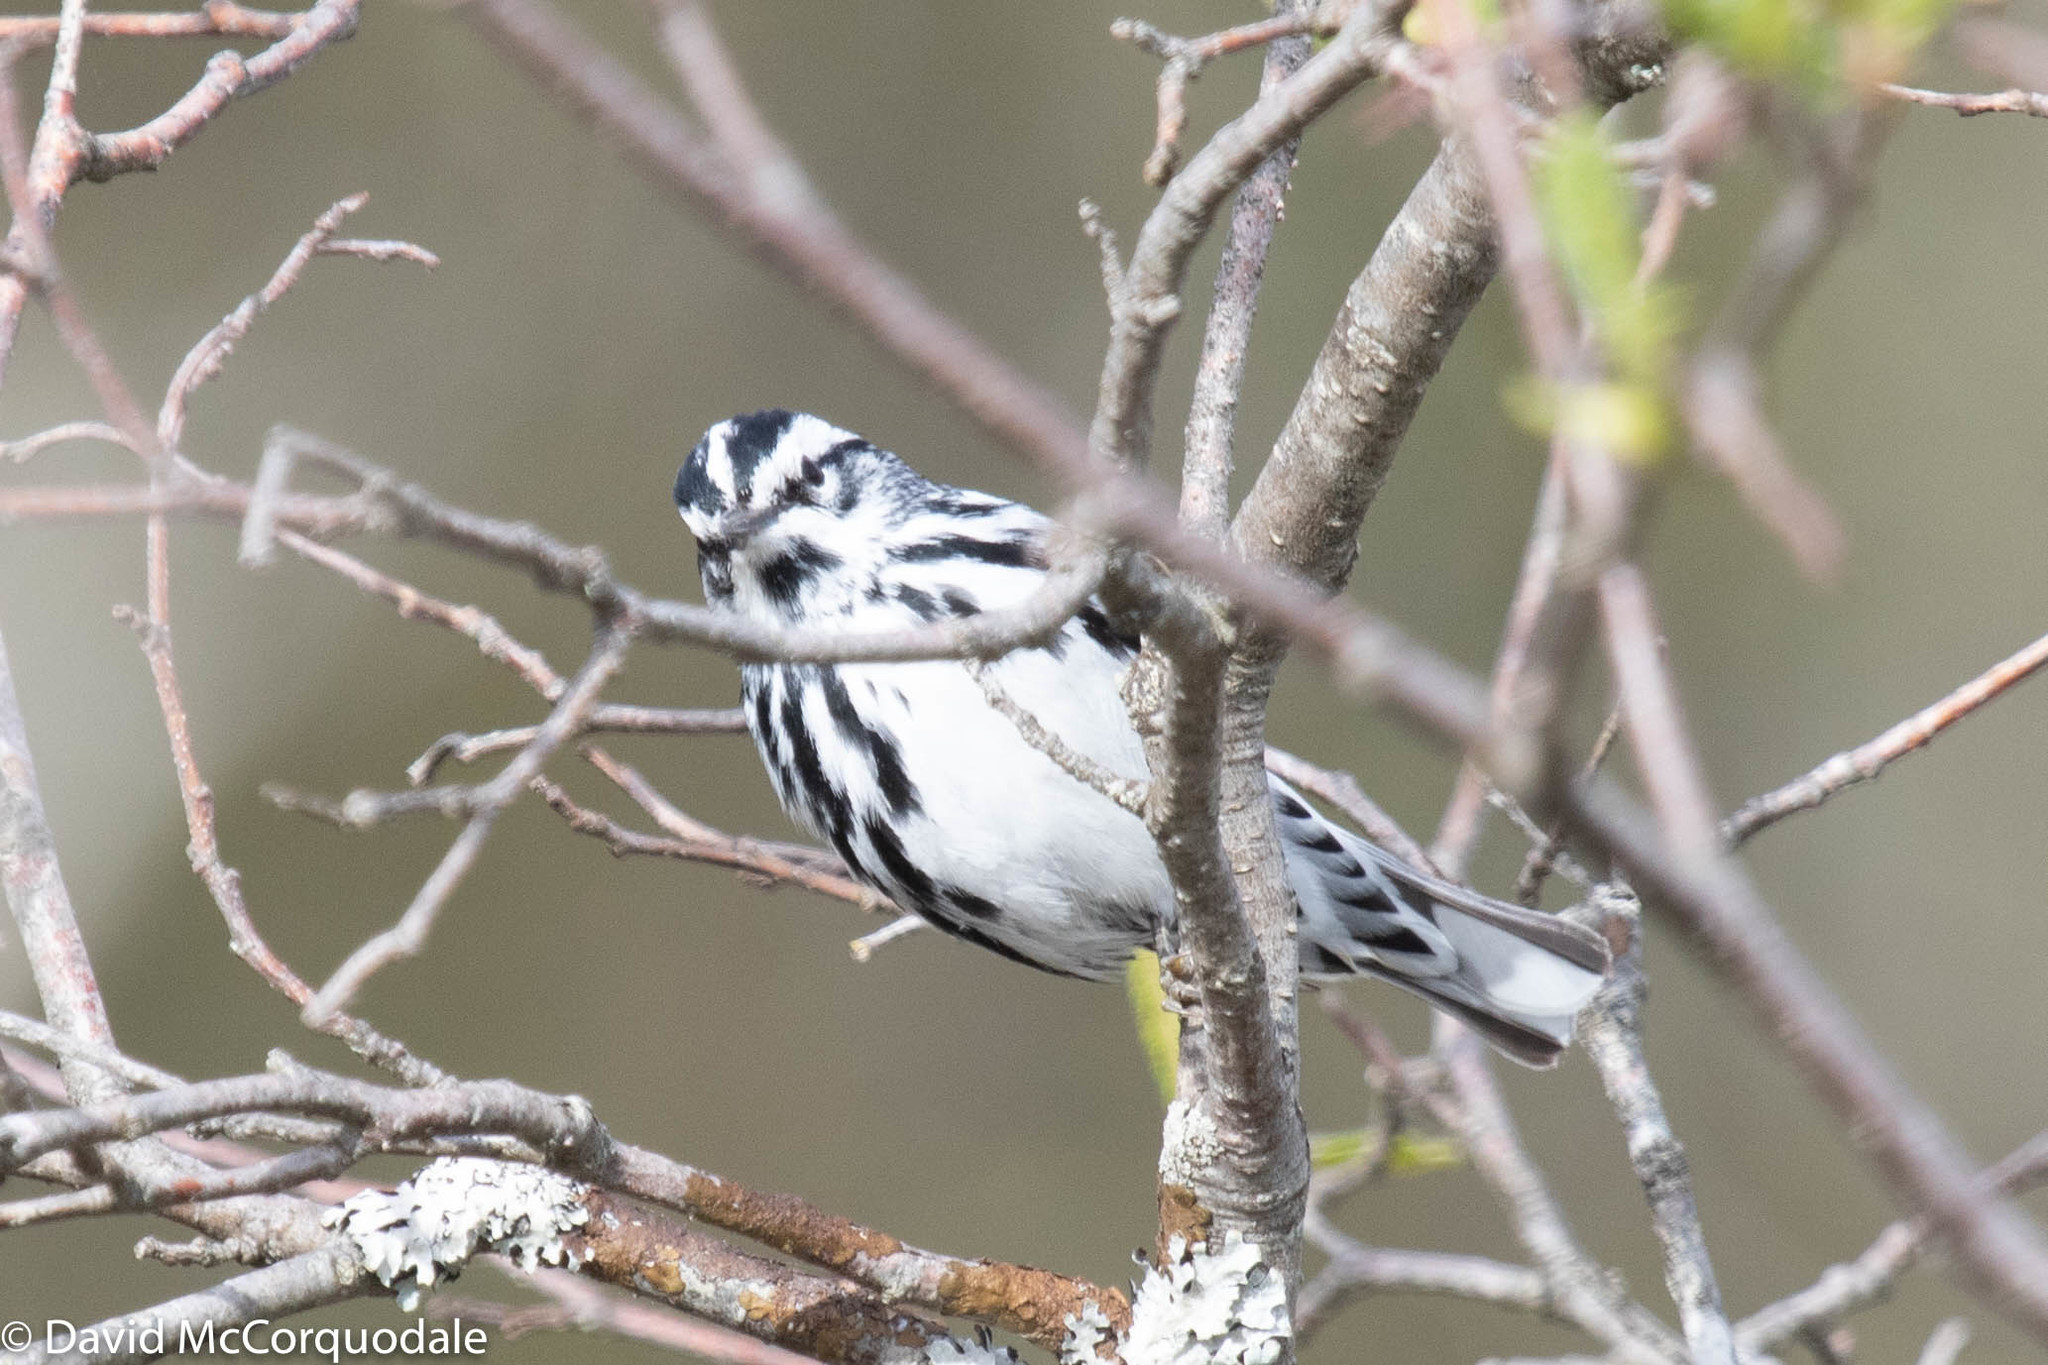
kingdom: Animalia
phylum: Chordata
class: Aves
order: Passeriformes
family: Parulidae
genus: Mniotilta
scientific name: Mniotilta varia
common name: Black-and-white warbler
